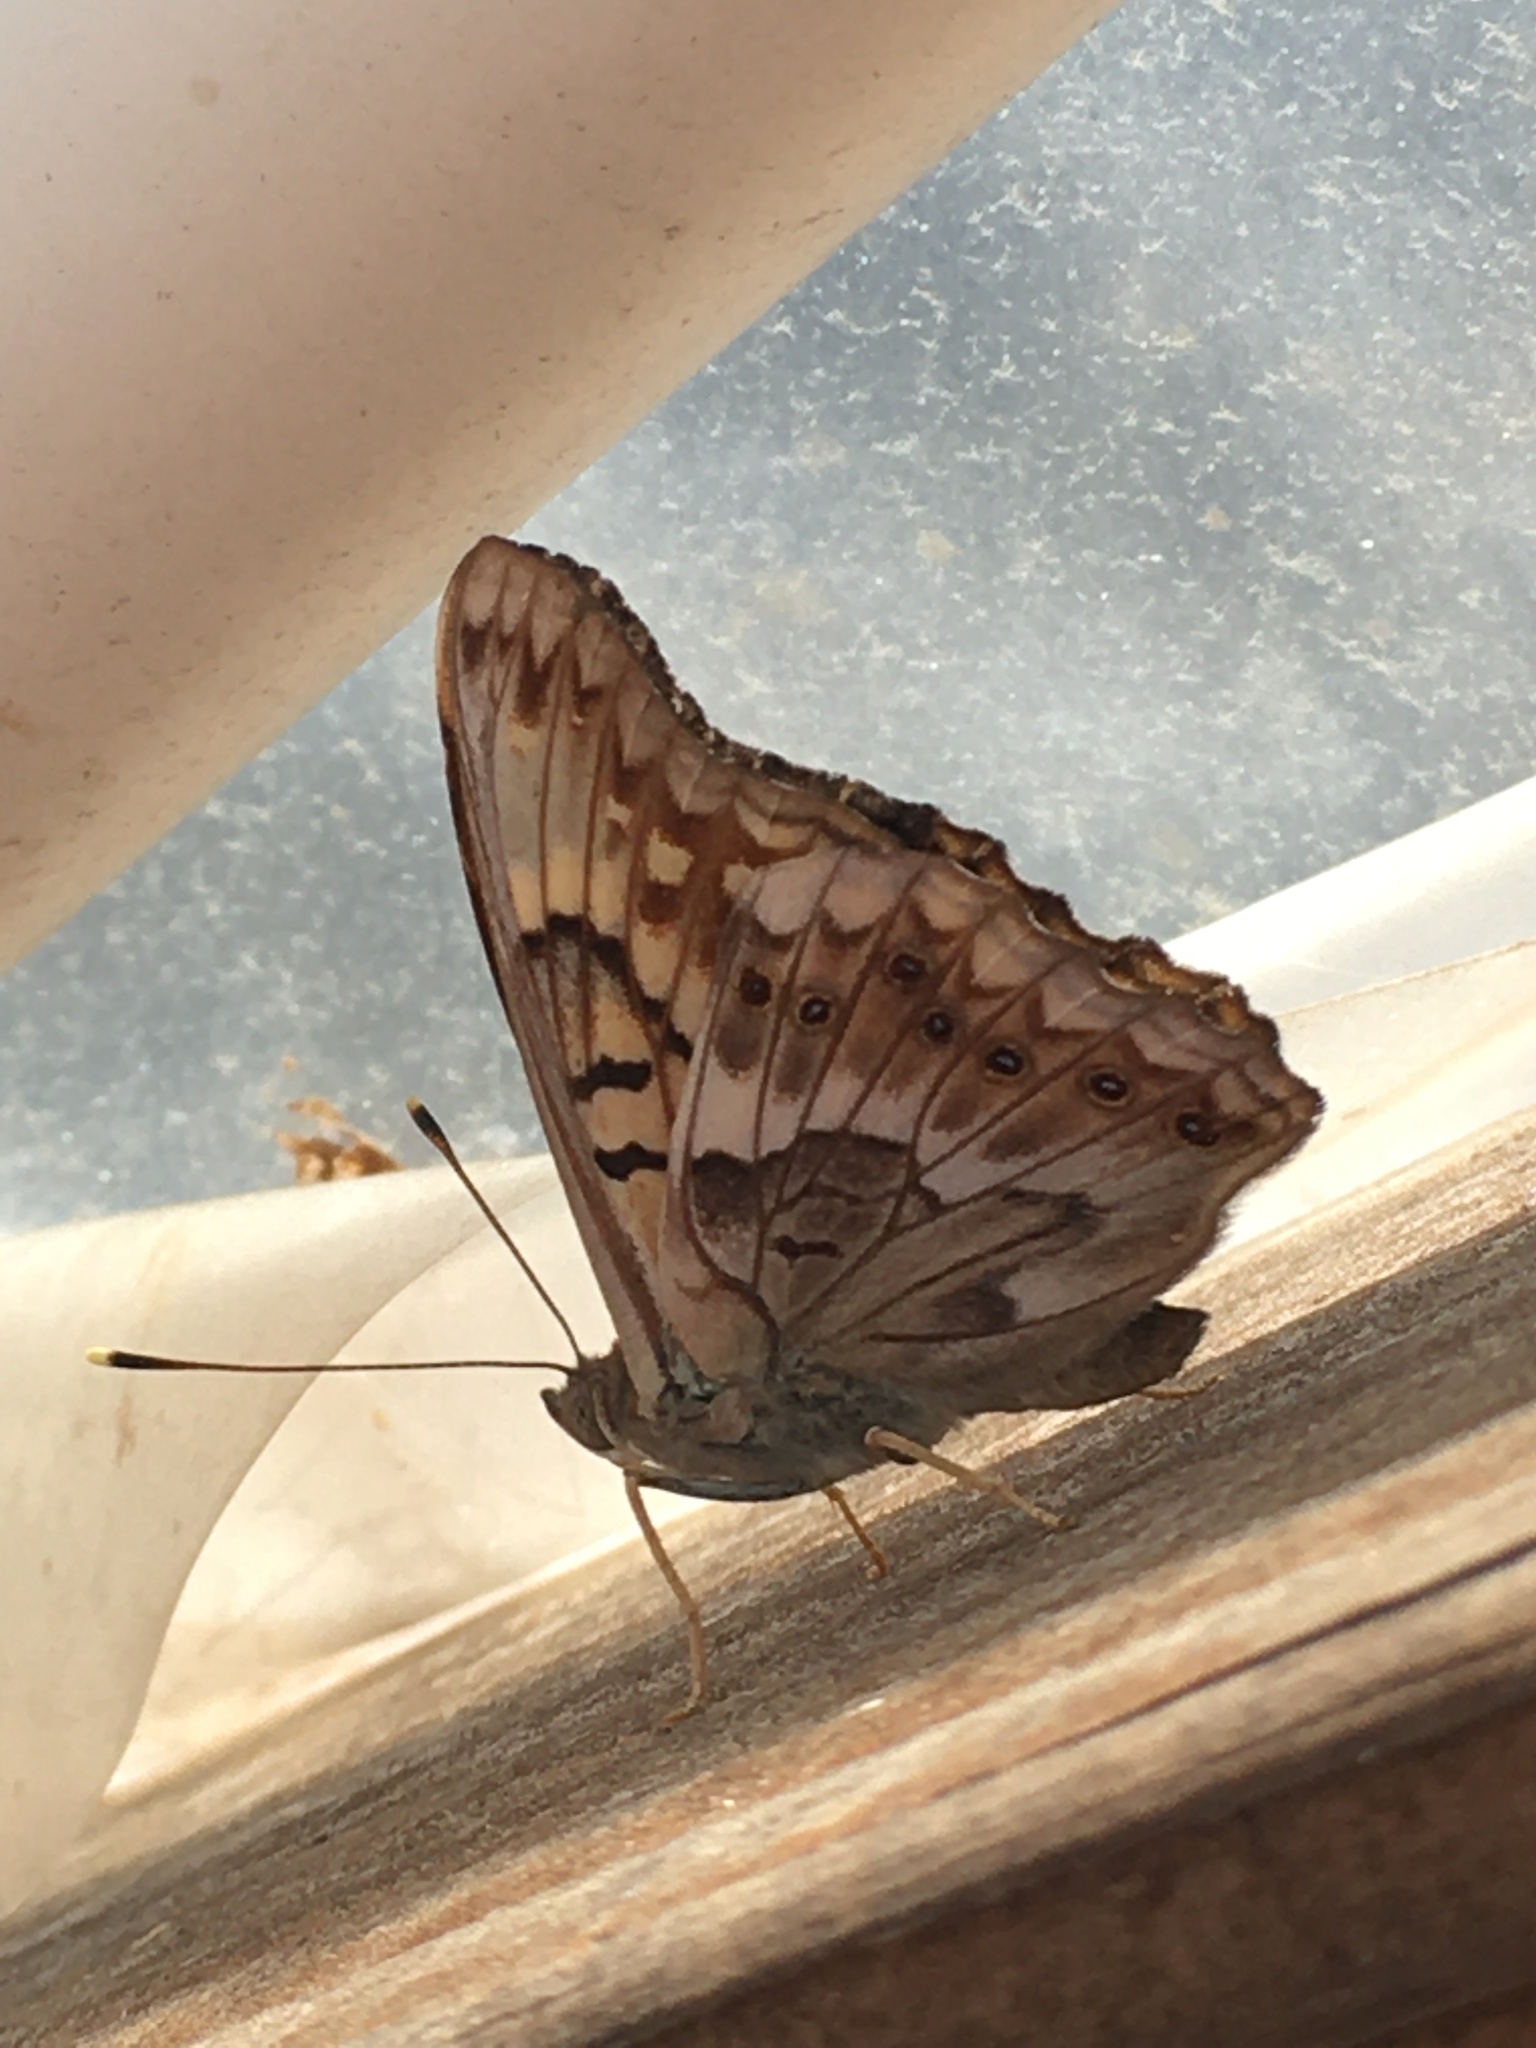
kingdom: Animalia
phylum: Arthropoda
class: Insecta
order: Lepidoptera
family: Nymphalidae
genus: Asterocampa
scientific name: Asterocampa clyton
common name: Tawny emperor
